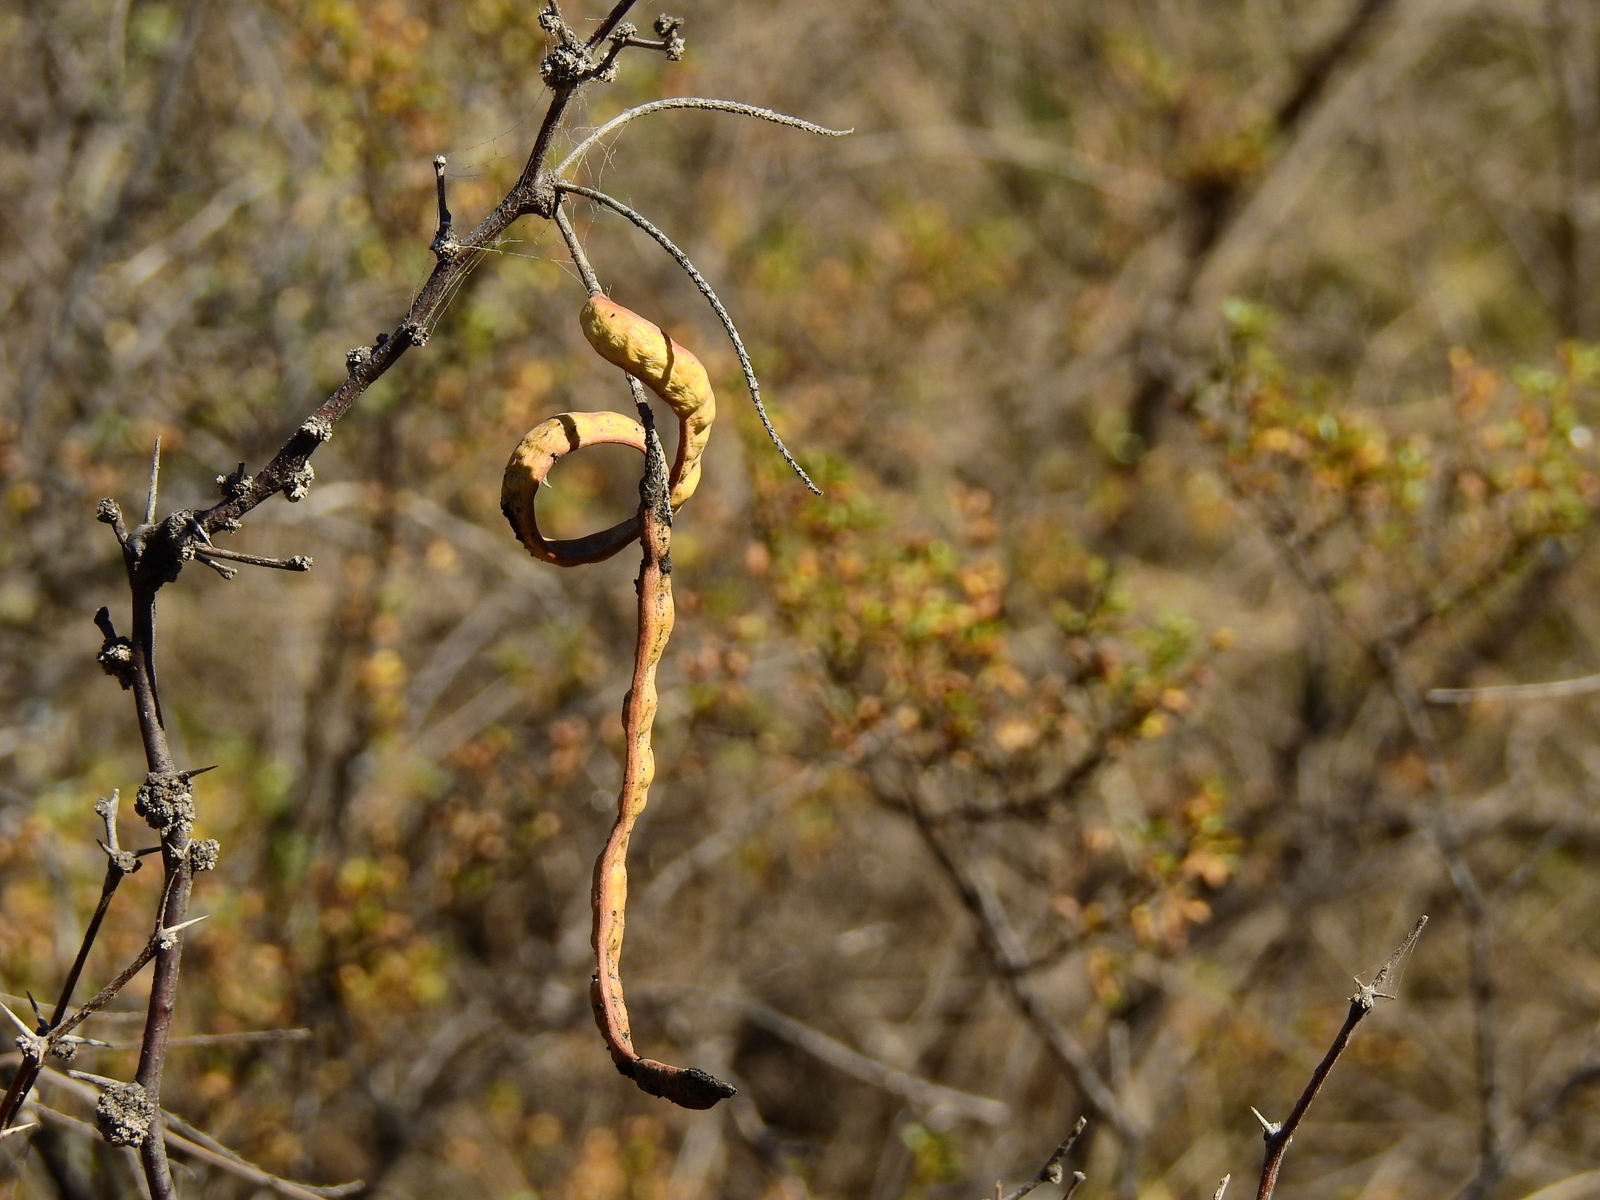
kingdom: Plantae
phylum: Tracheophyta
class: Magnoliopsida
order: Fabales
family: Fabaceae
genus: Prosopis
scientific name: Prosopis flexuosa
